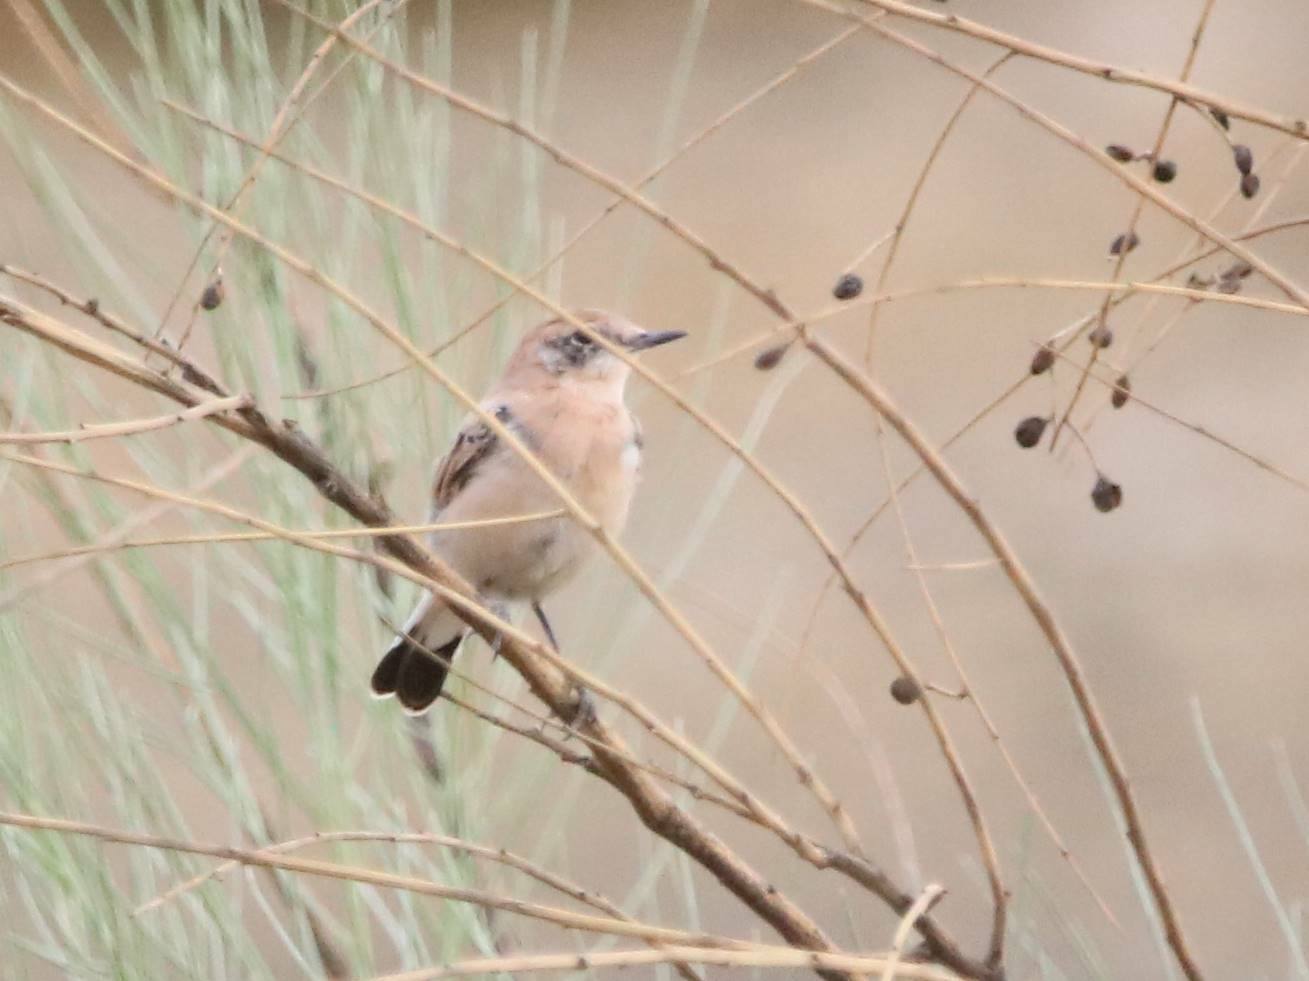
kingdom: Animalia
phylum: Chordata
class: Aves
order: Passeriformes
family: Muscicapidae
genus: Oenanthe
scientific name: Oenanthe hispanica
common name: Black-eared wheatear
